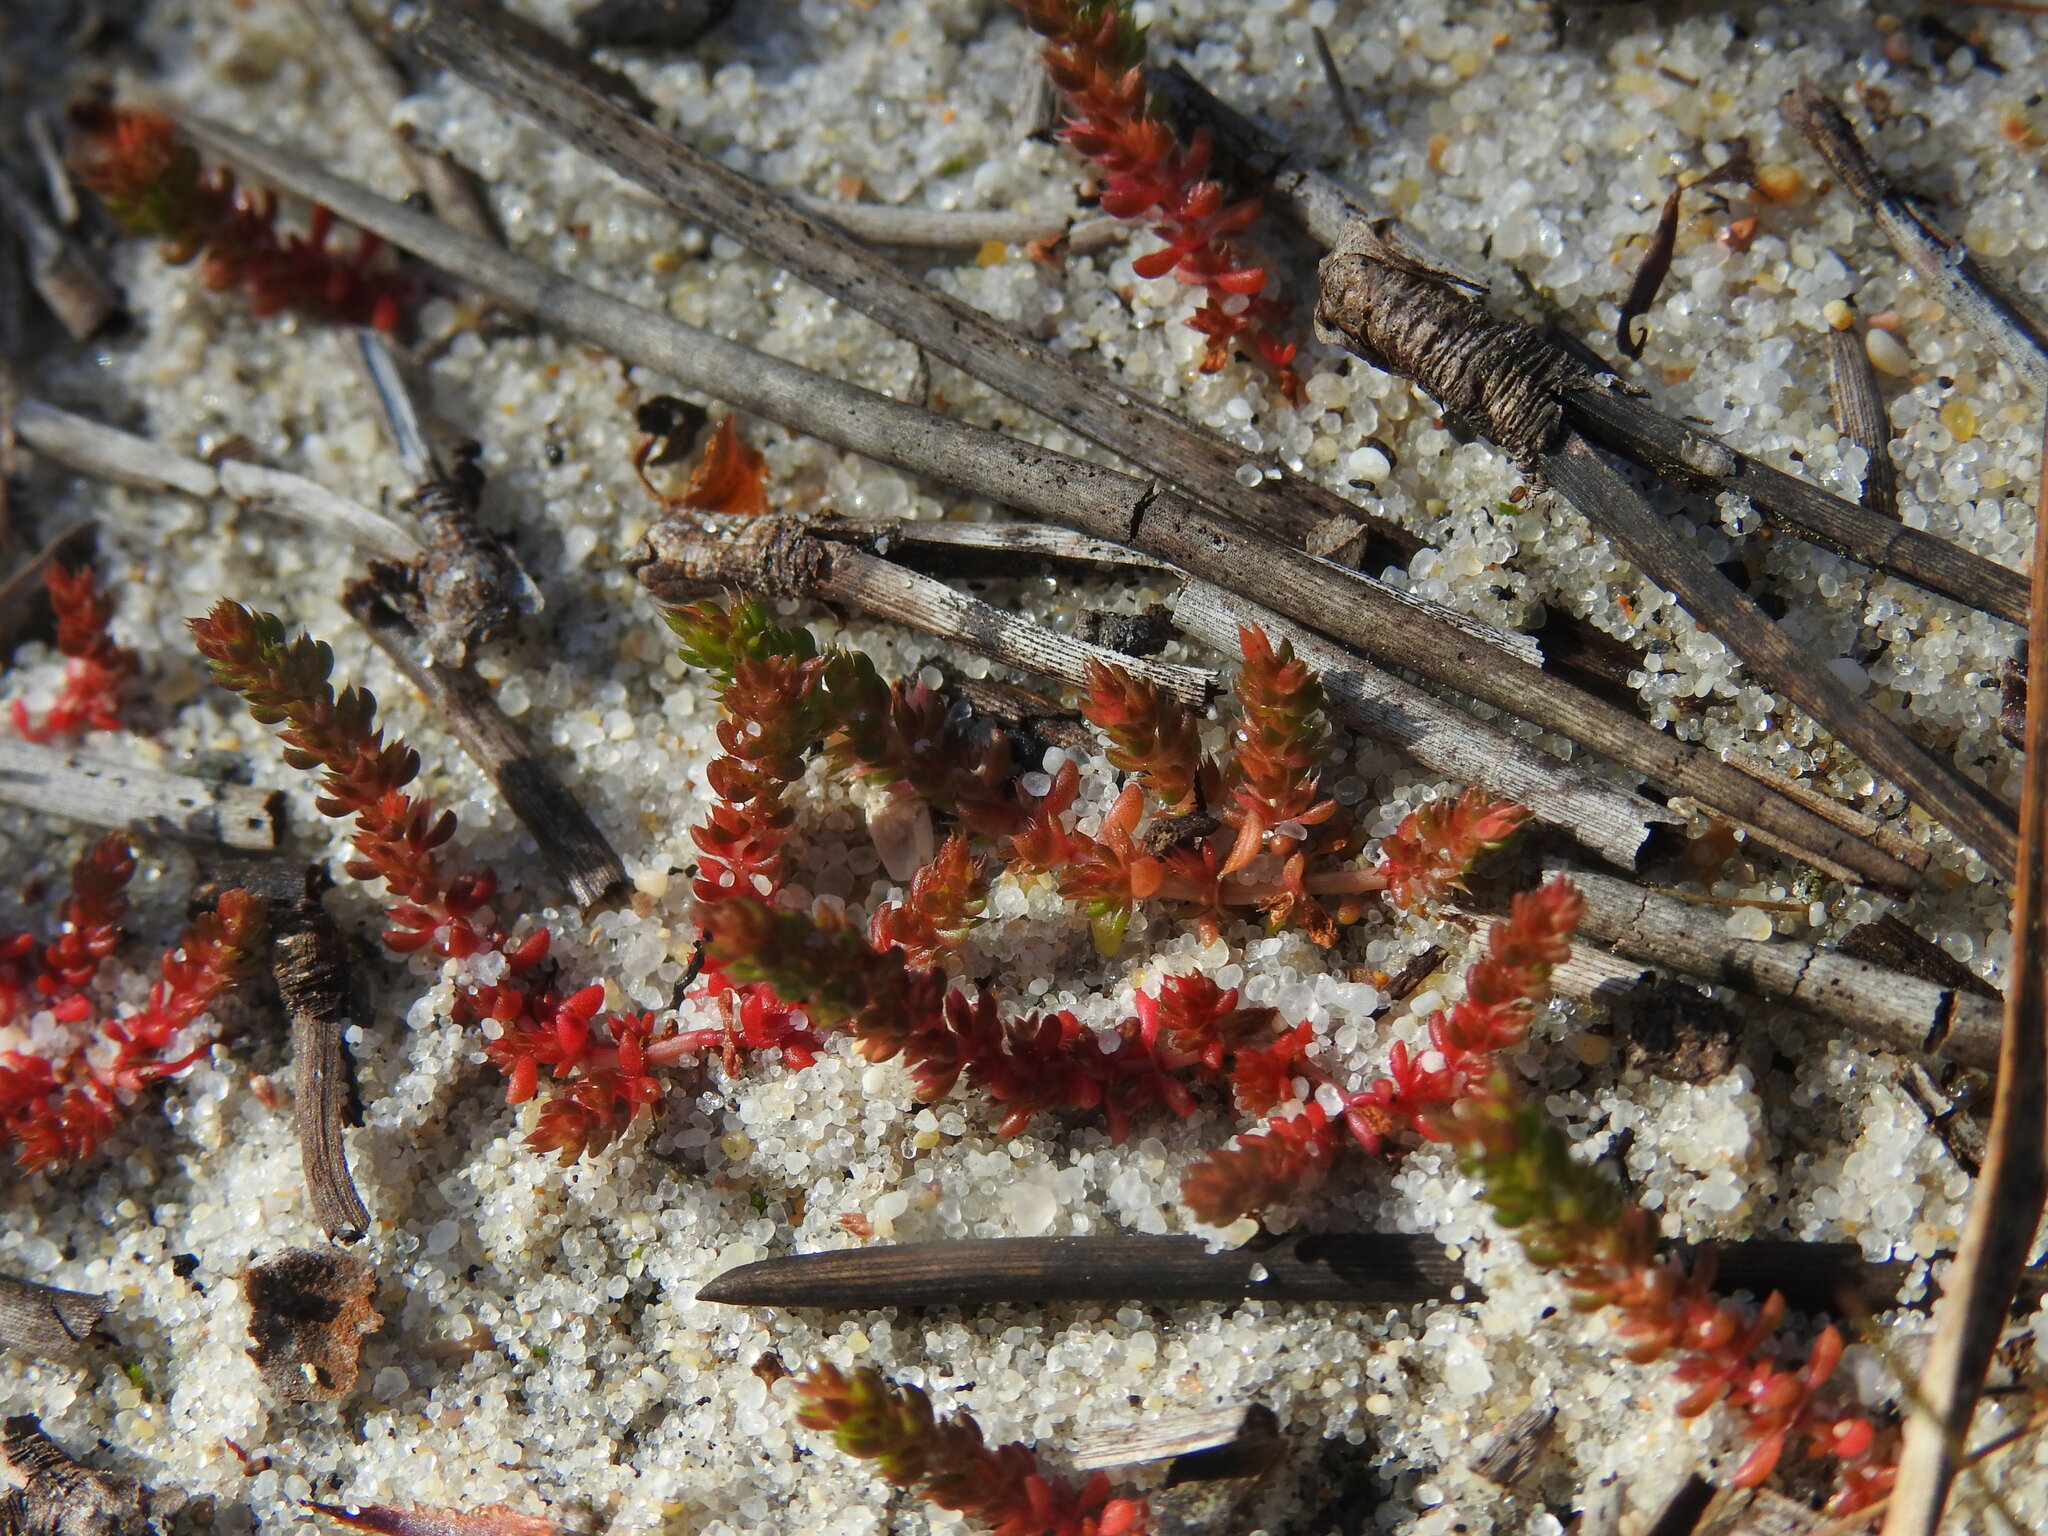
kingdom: Plantae
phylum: Tracheophyta
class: Magnoliopsida
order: Saxifragales
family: Crassulaceae
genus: Crassula
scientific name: Crassula tillaea
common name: Mossy stonecrop
